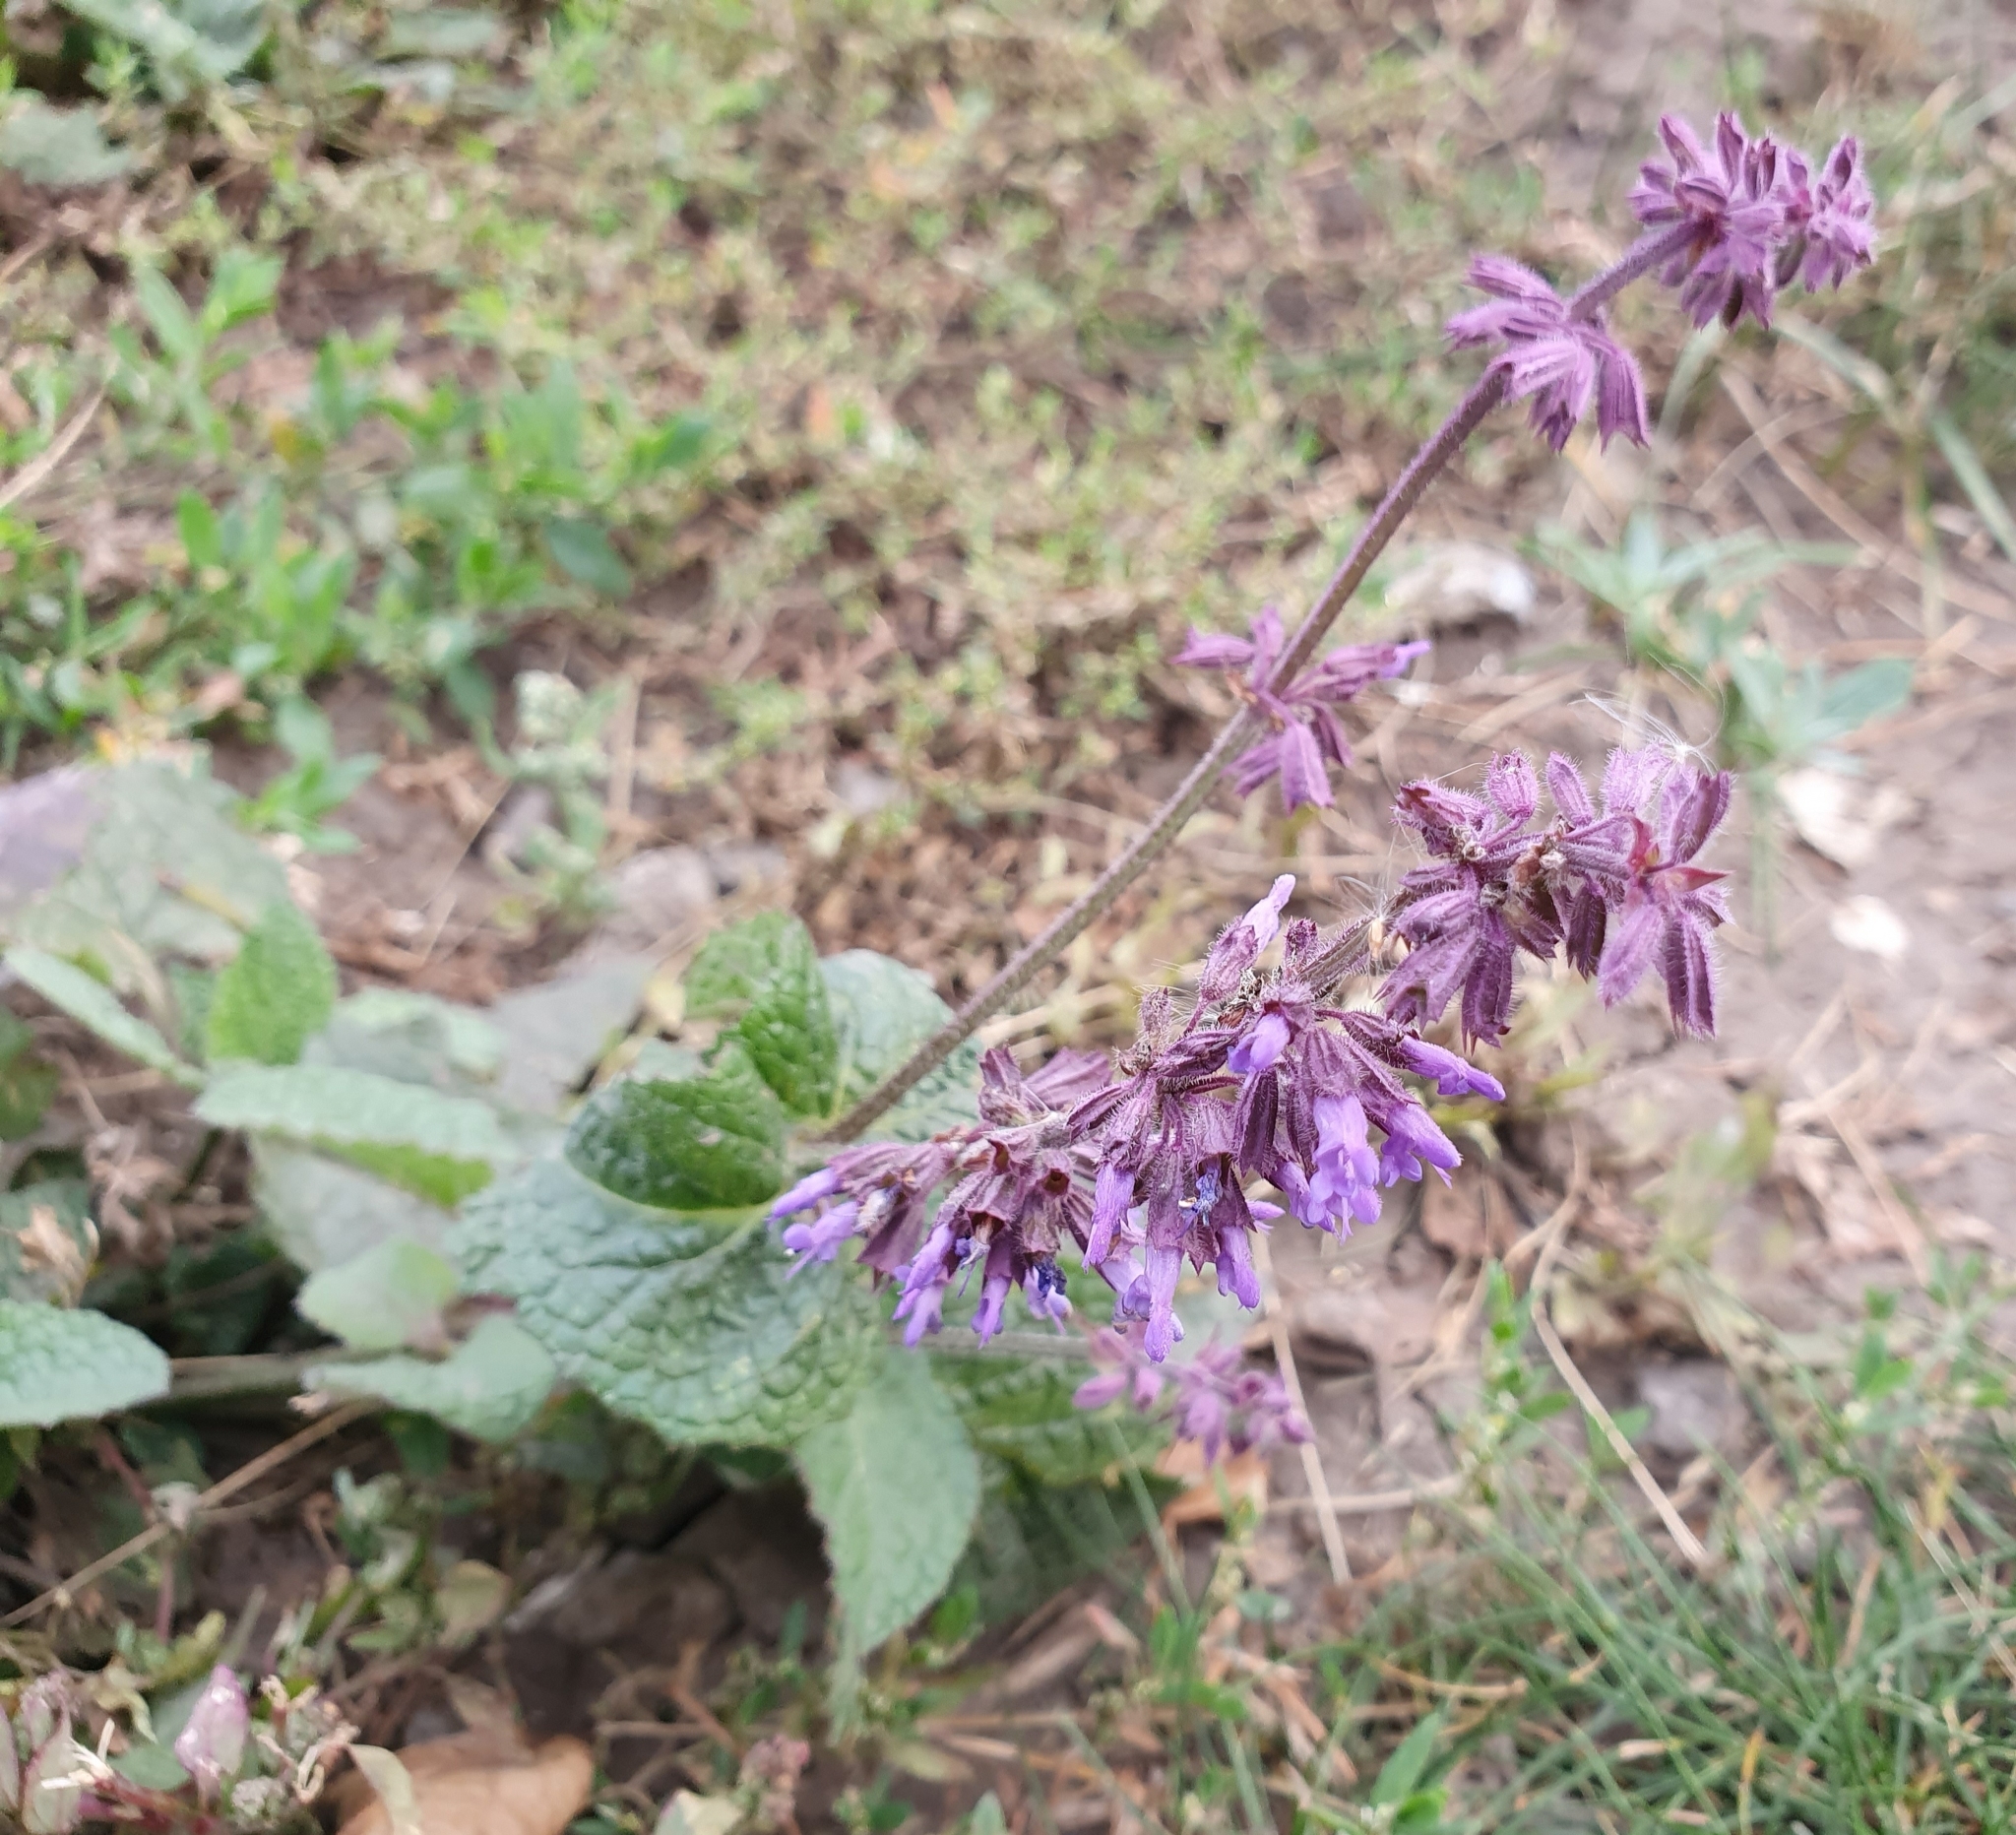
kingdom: Plantae
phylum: Tracheophyta
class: Magnoliopsida
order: Lamiales
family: Lamiaceae
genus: Salvia
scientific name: Salvia verticillata
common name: Whorled clary
